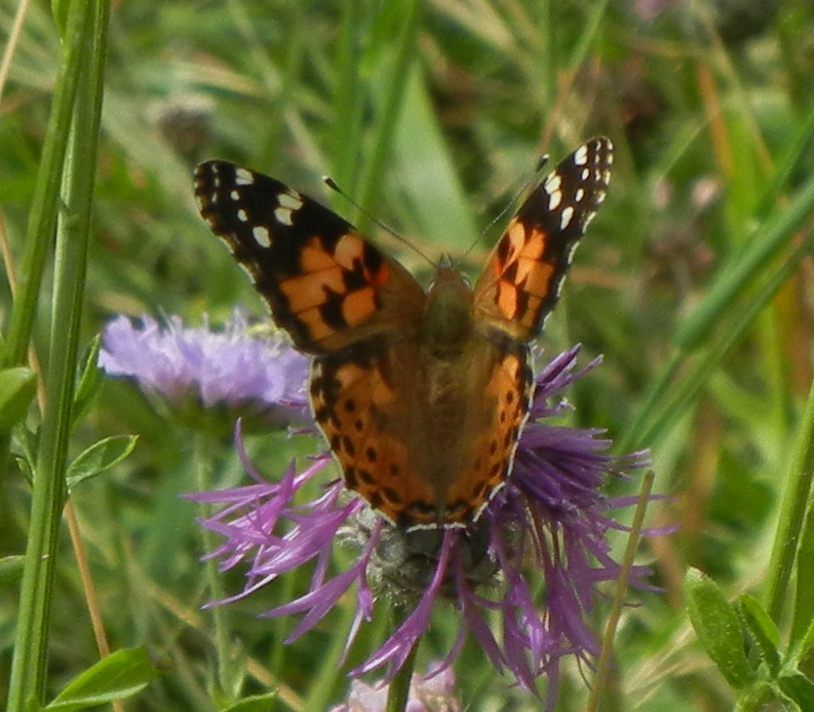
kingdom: Animalia
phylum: Arthropoda
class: Insecta
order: Lepidoptera
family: Nymphalidae
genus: Vanessa
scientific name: Vanessa cardui
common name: Painted lady
